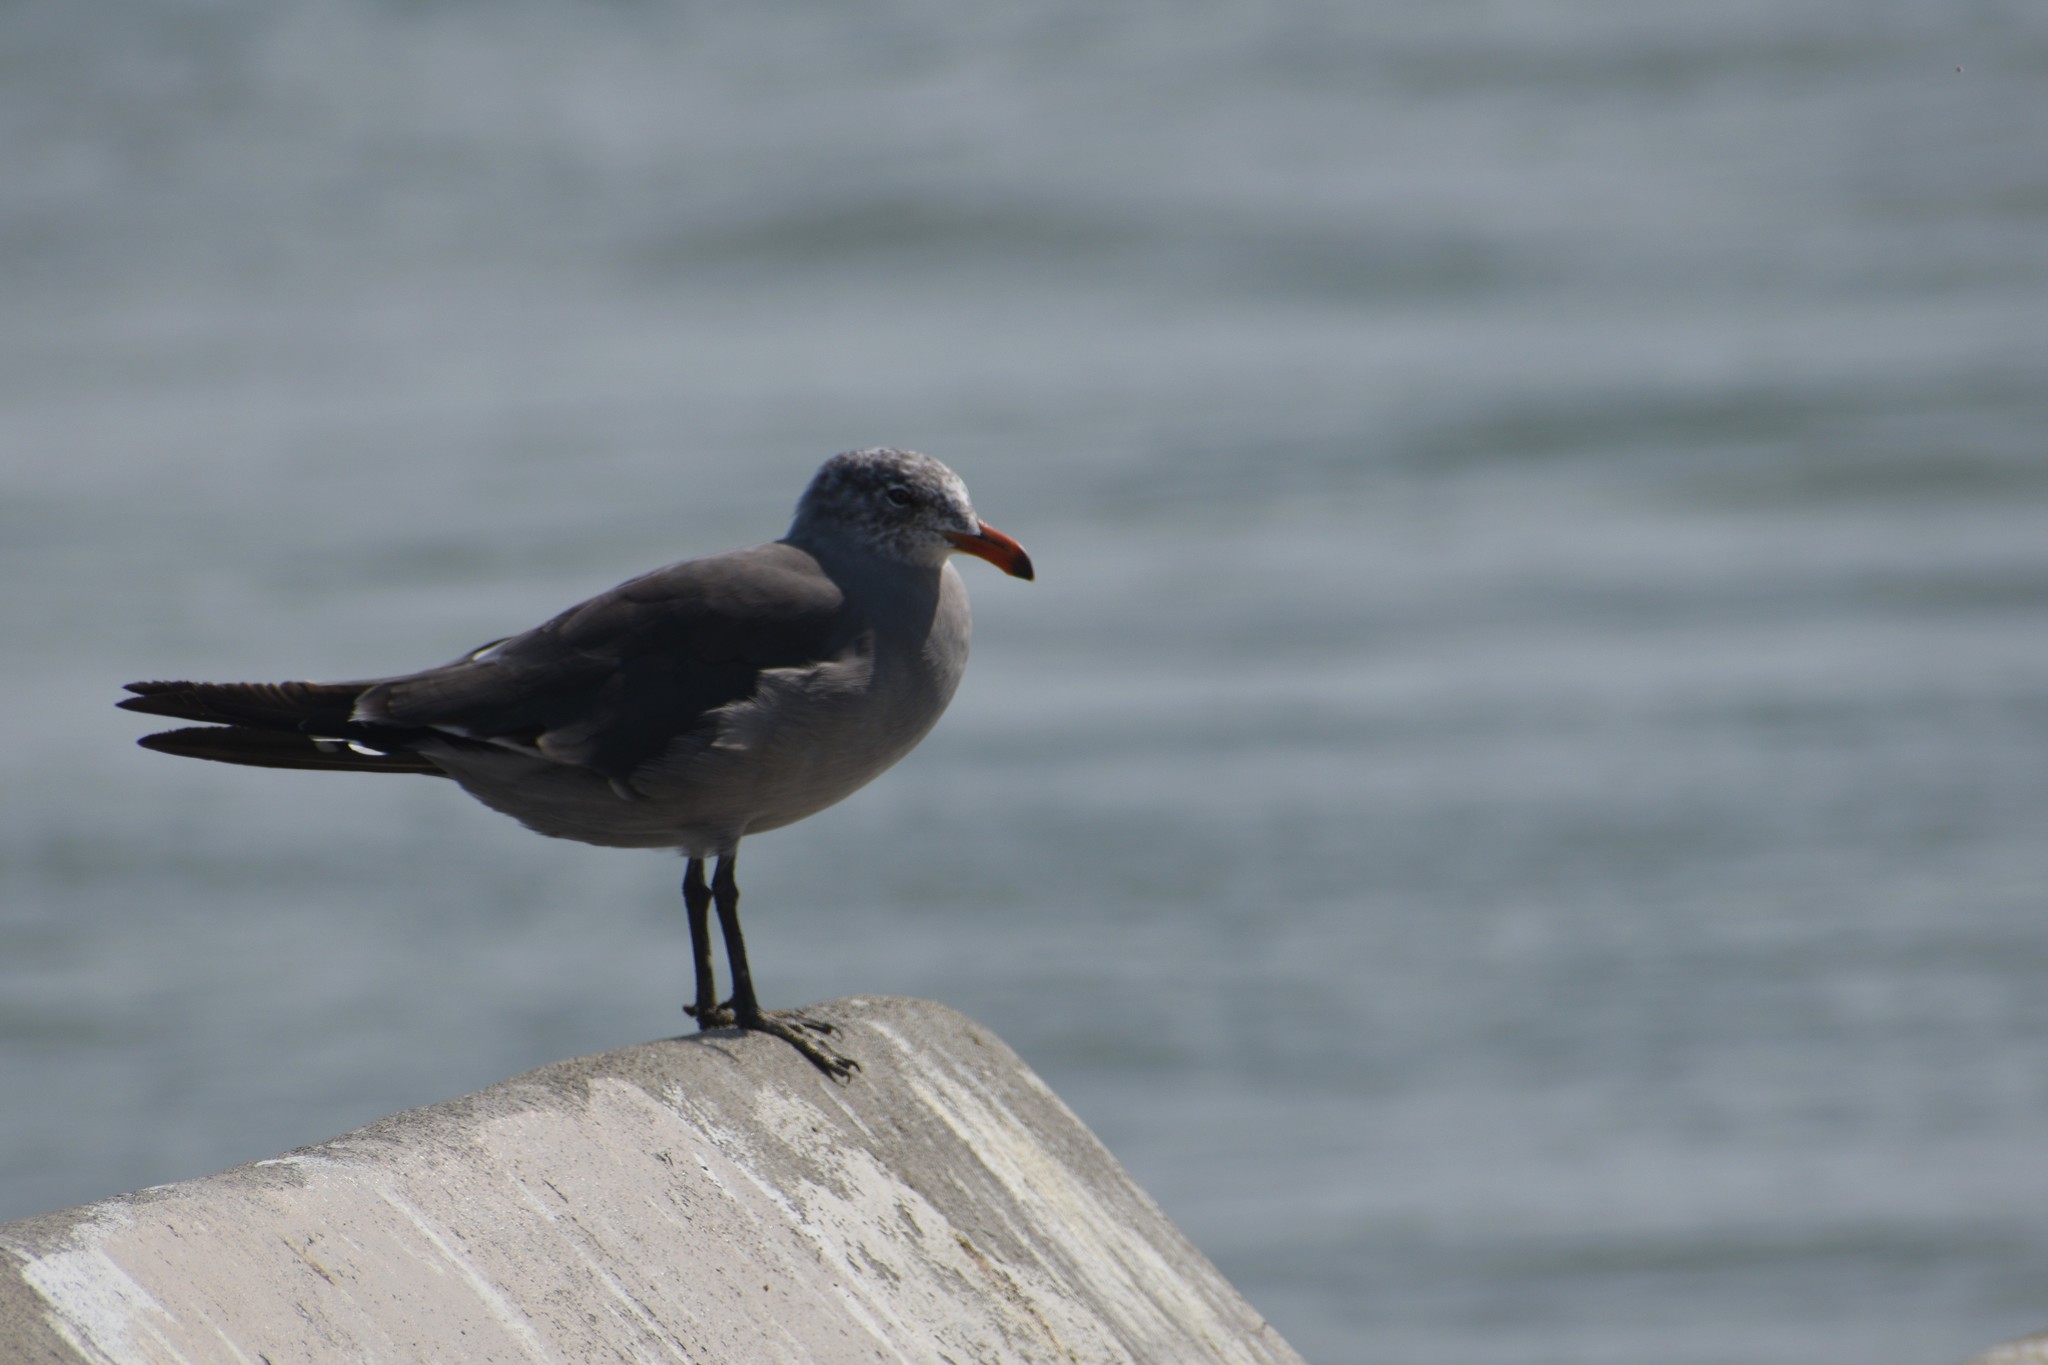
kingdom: Animalia
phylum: Chordata
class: Aves
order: Charadriiformes
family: Laridae
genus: Larus
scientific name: Larus heermanni
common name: Heermann's gull
